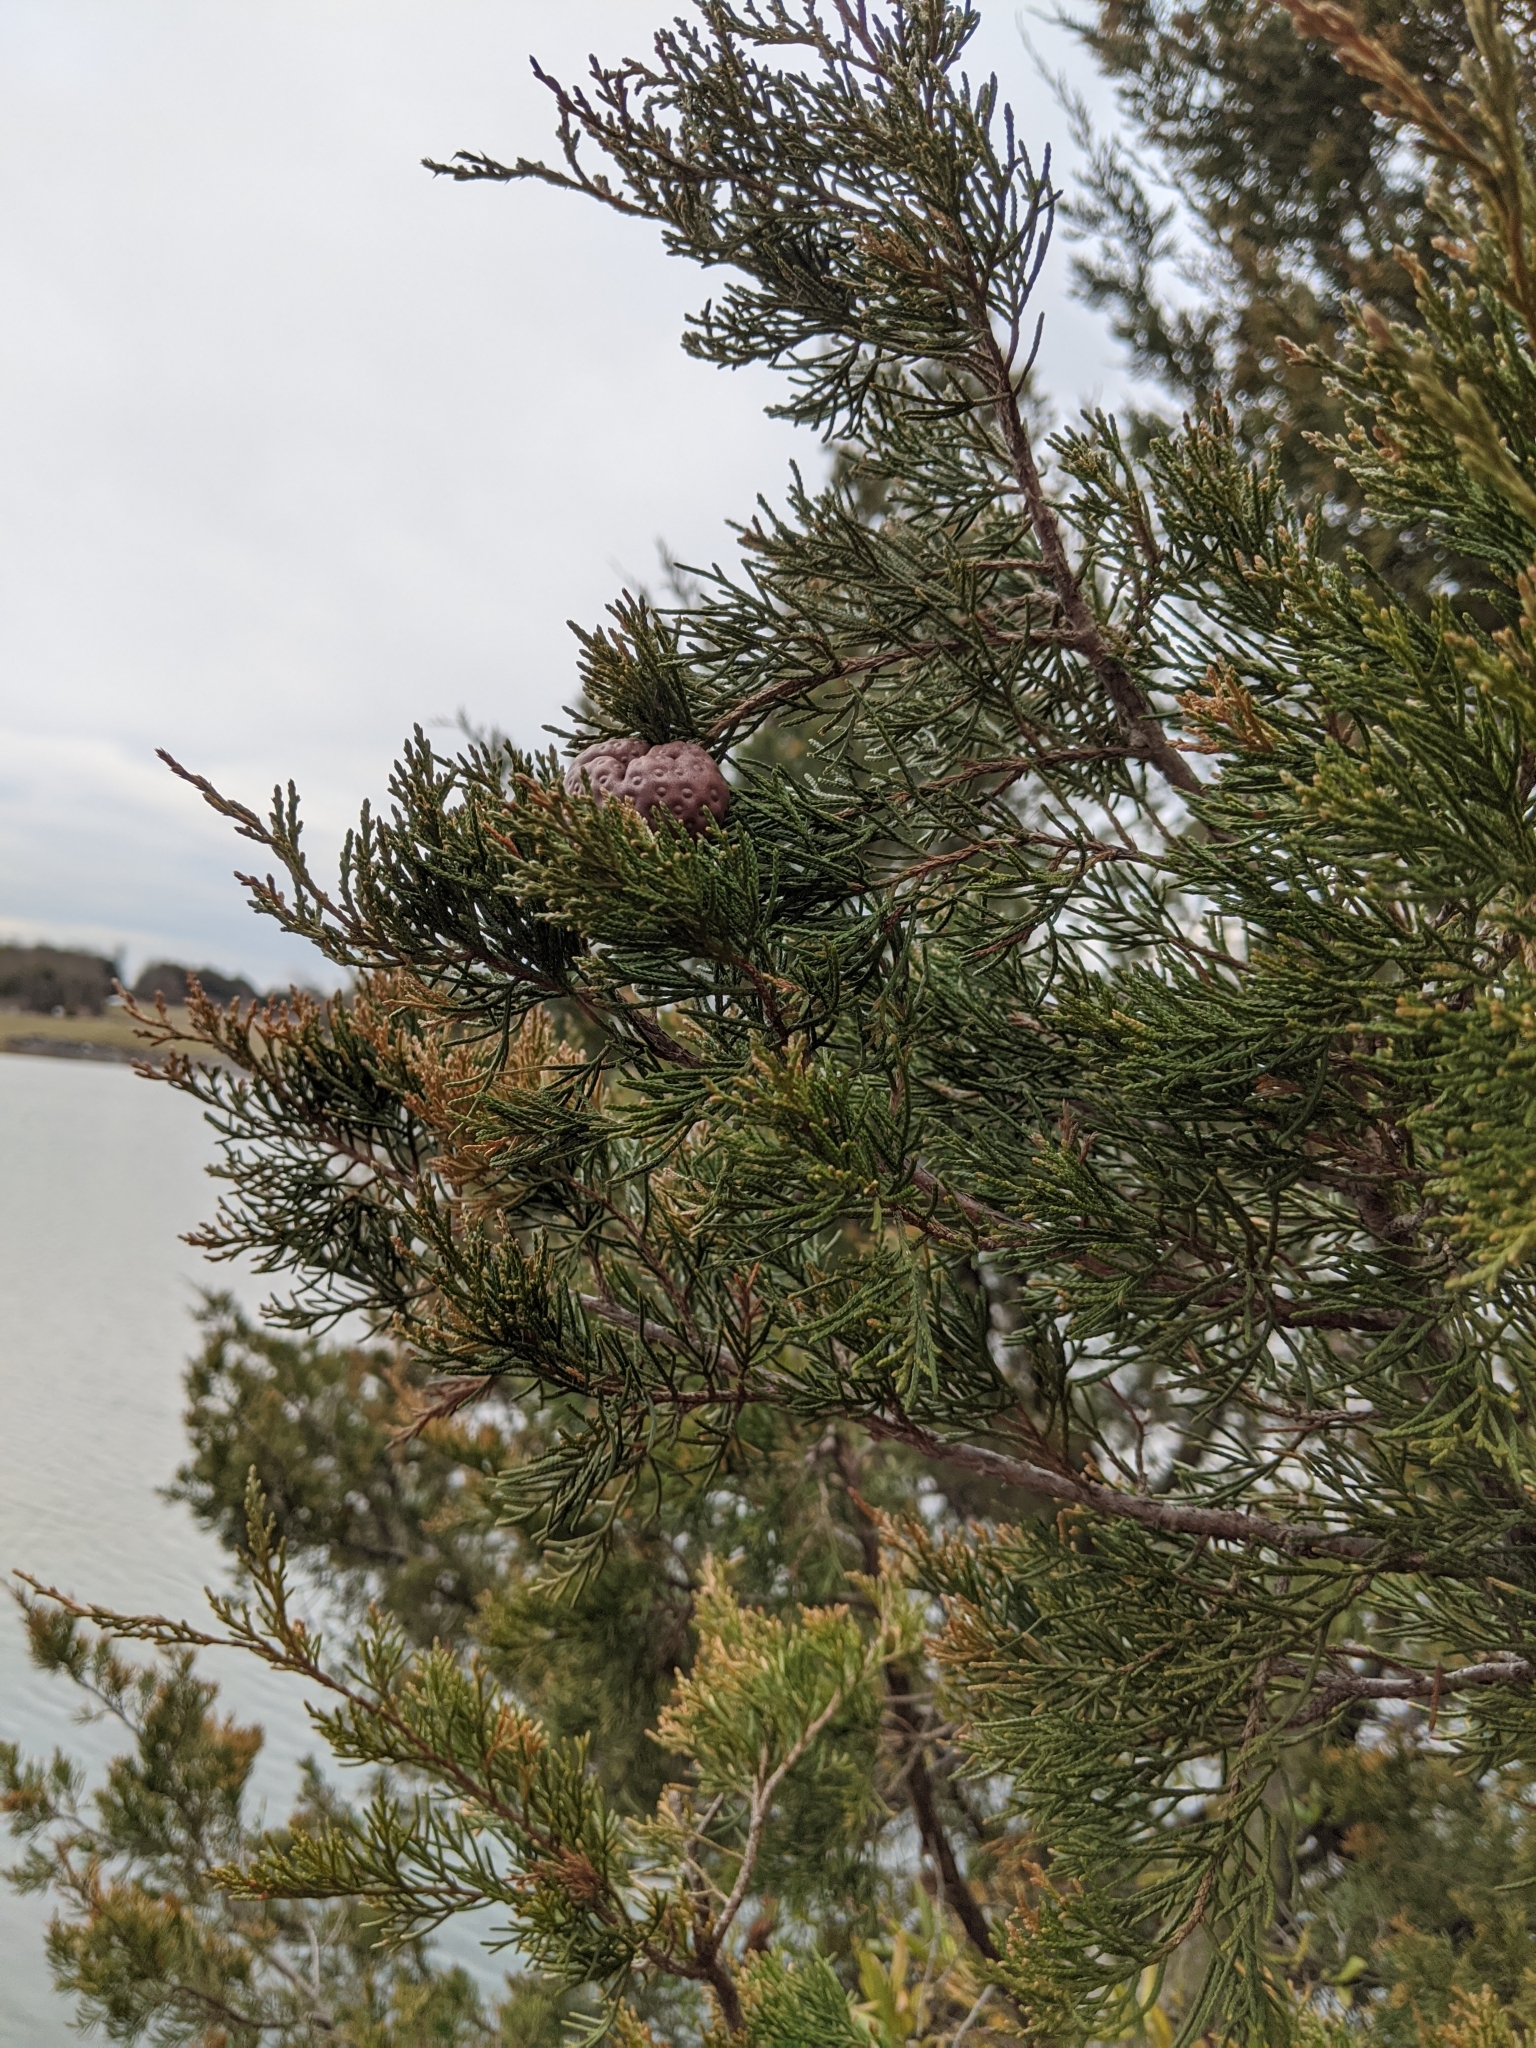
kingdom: Fungi
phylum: Basidiomycota
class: Pucciniomycetes
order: Pucciniales
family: Gymnosporangiaceae
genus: Gymnosporangium
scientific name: Gymnosporangium juniperi-virginianae
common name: Juniper-apple rust
